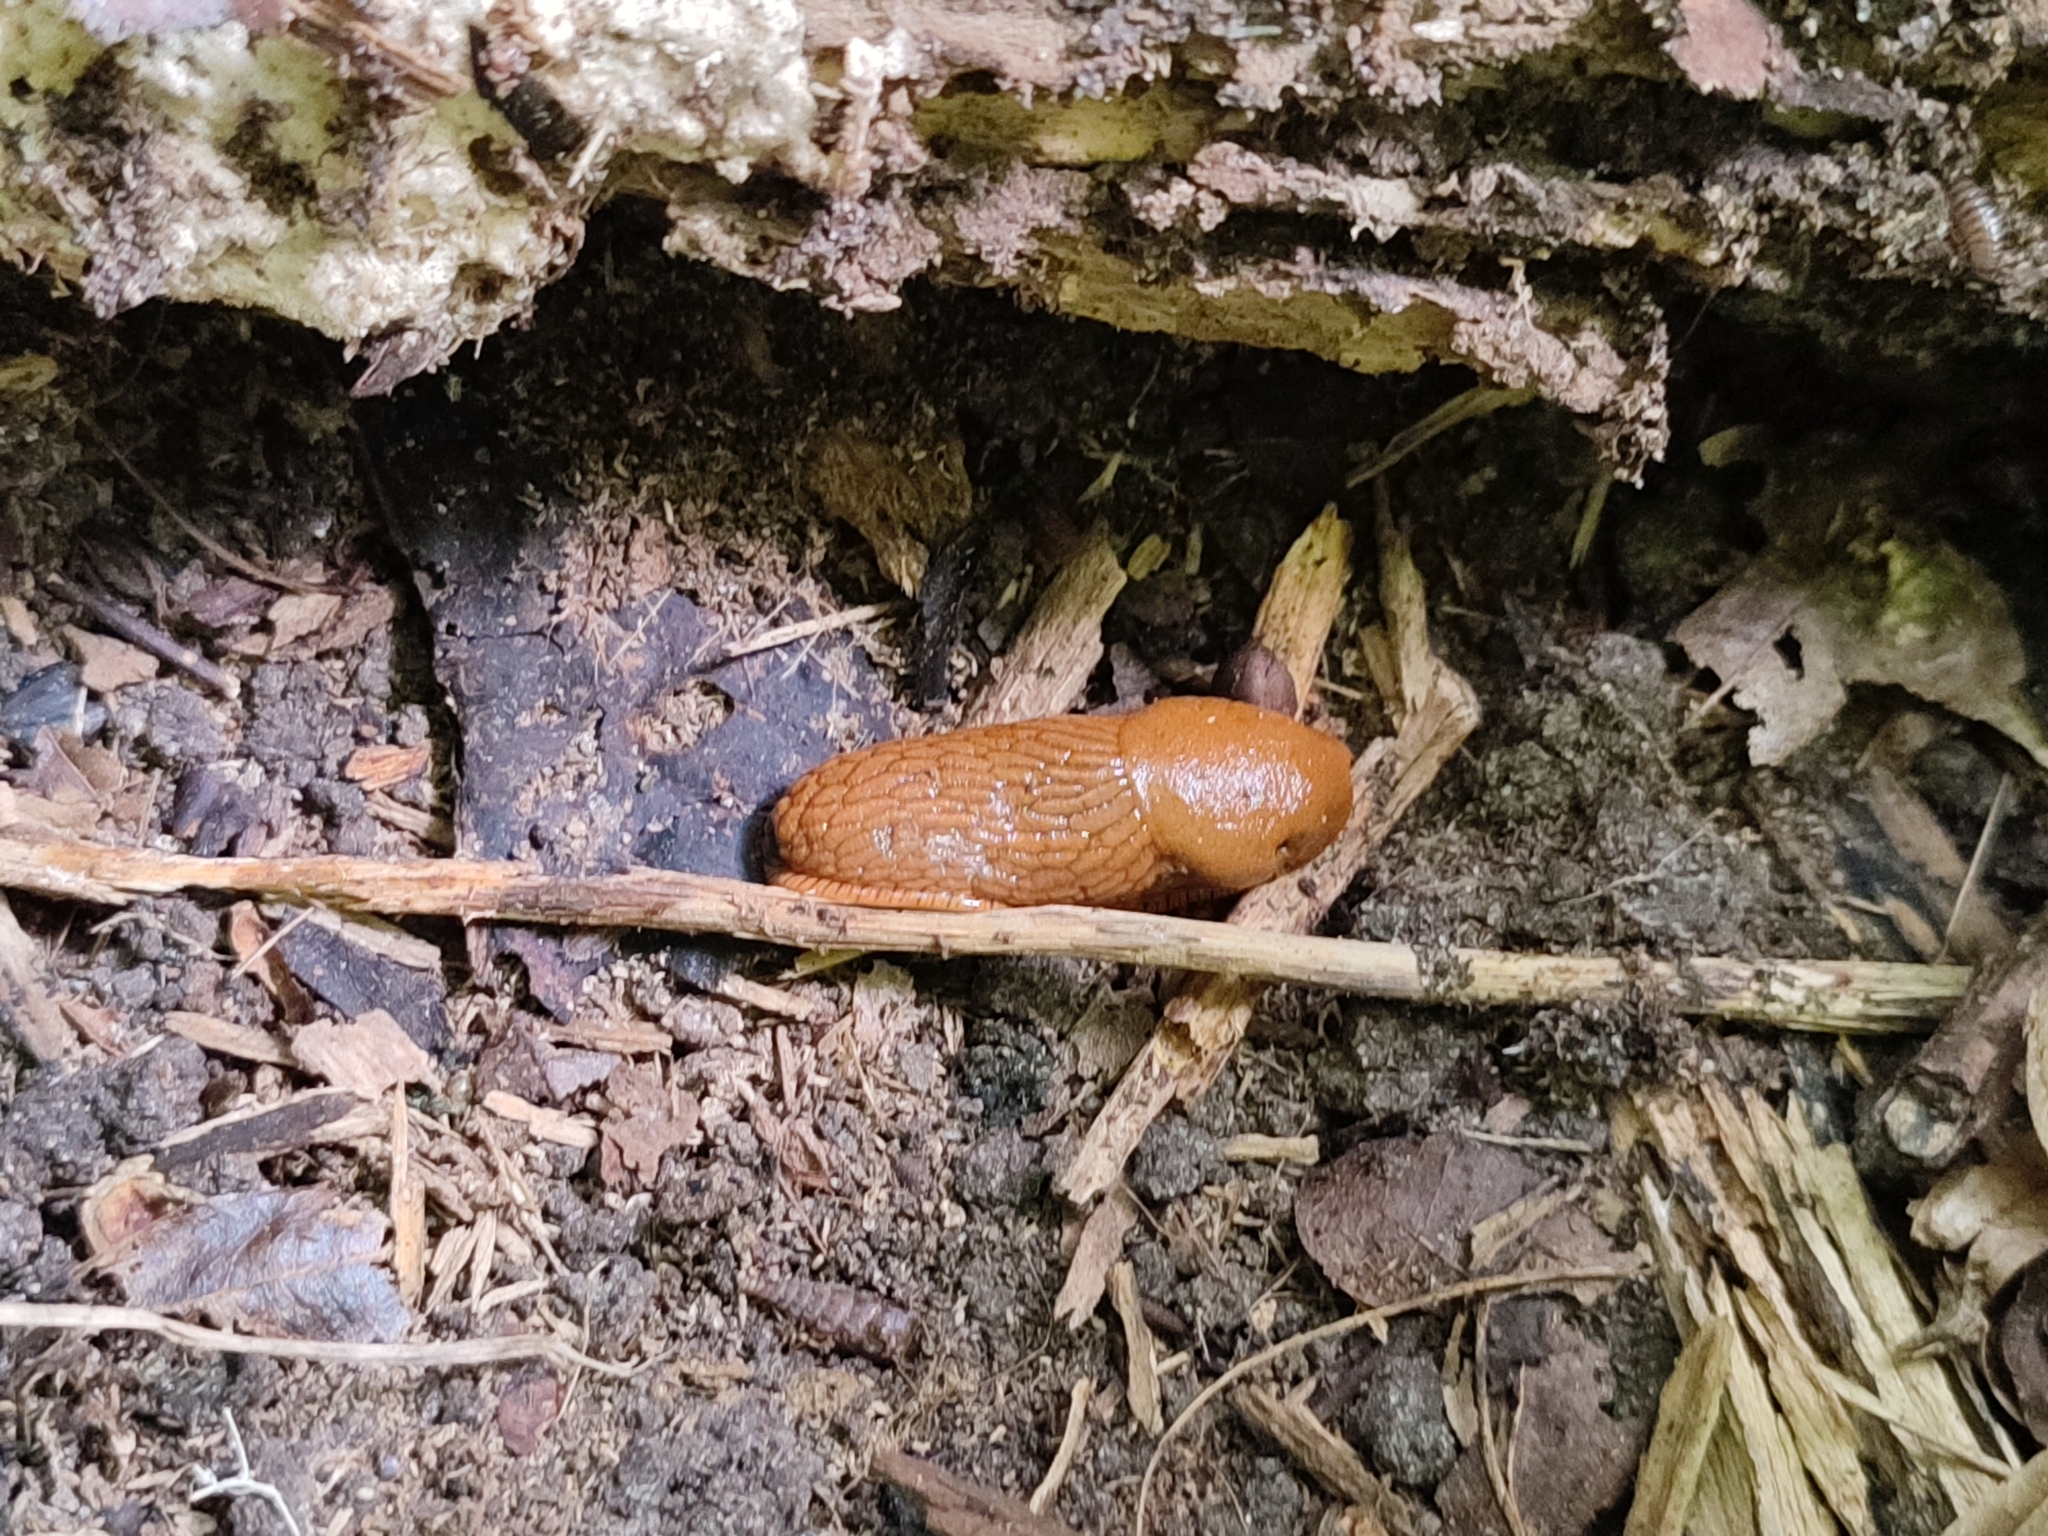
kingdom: Animalia
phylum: Mollusca
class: Gastropoda
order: Stylommatophora
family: Arionidae
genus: Arion
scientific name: Arion vulgaris
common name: Lusitanian slug
